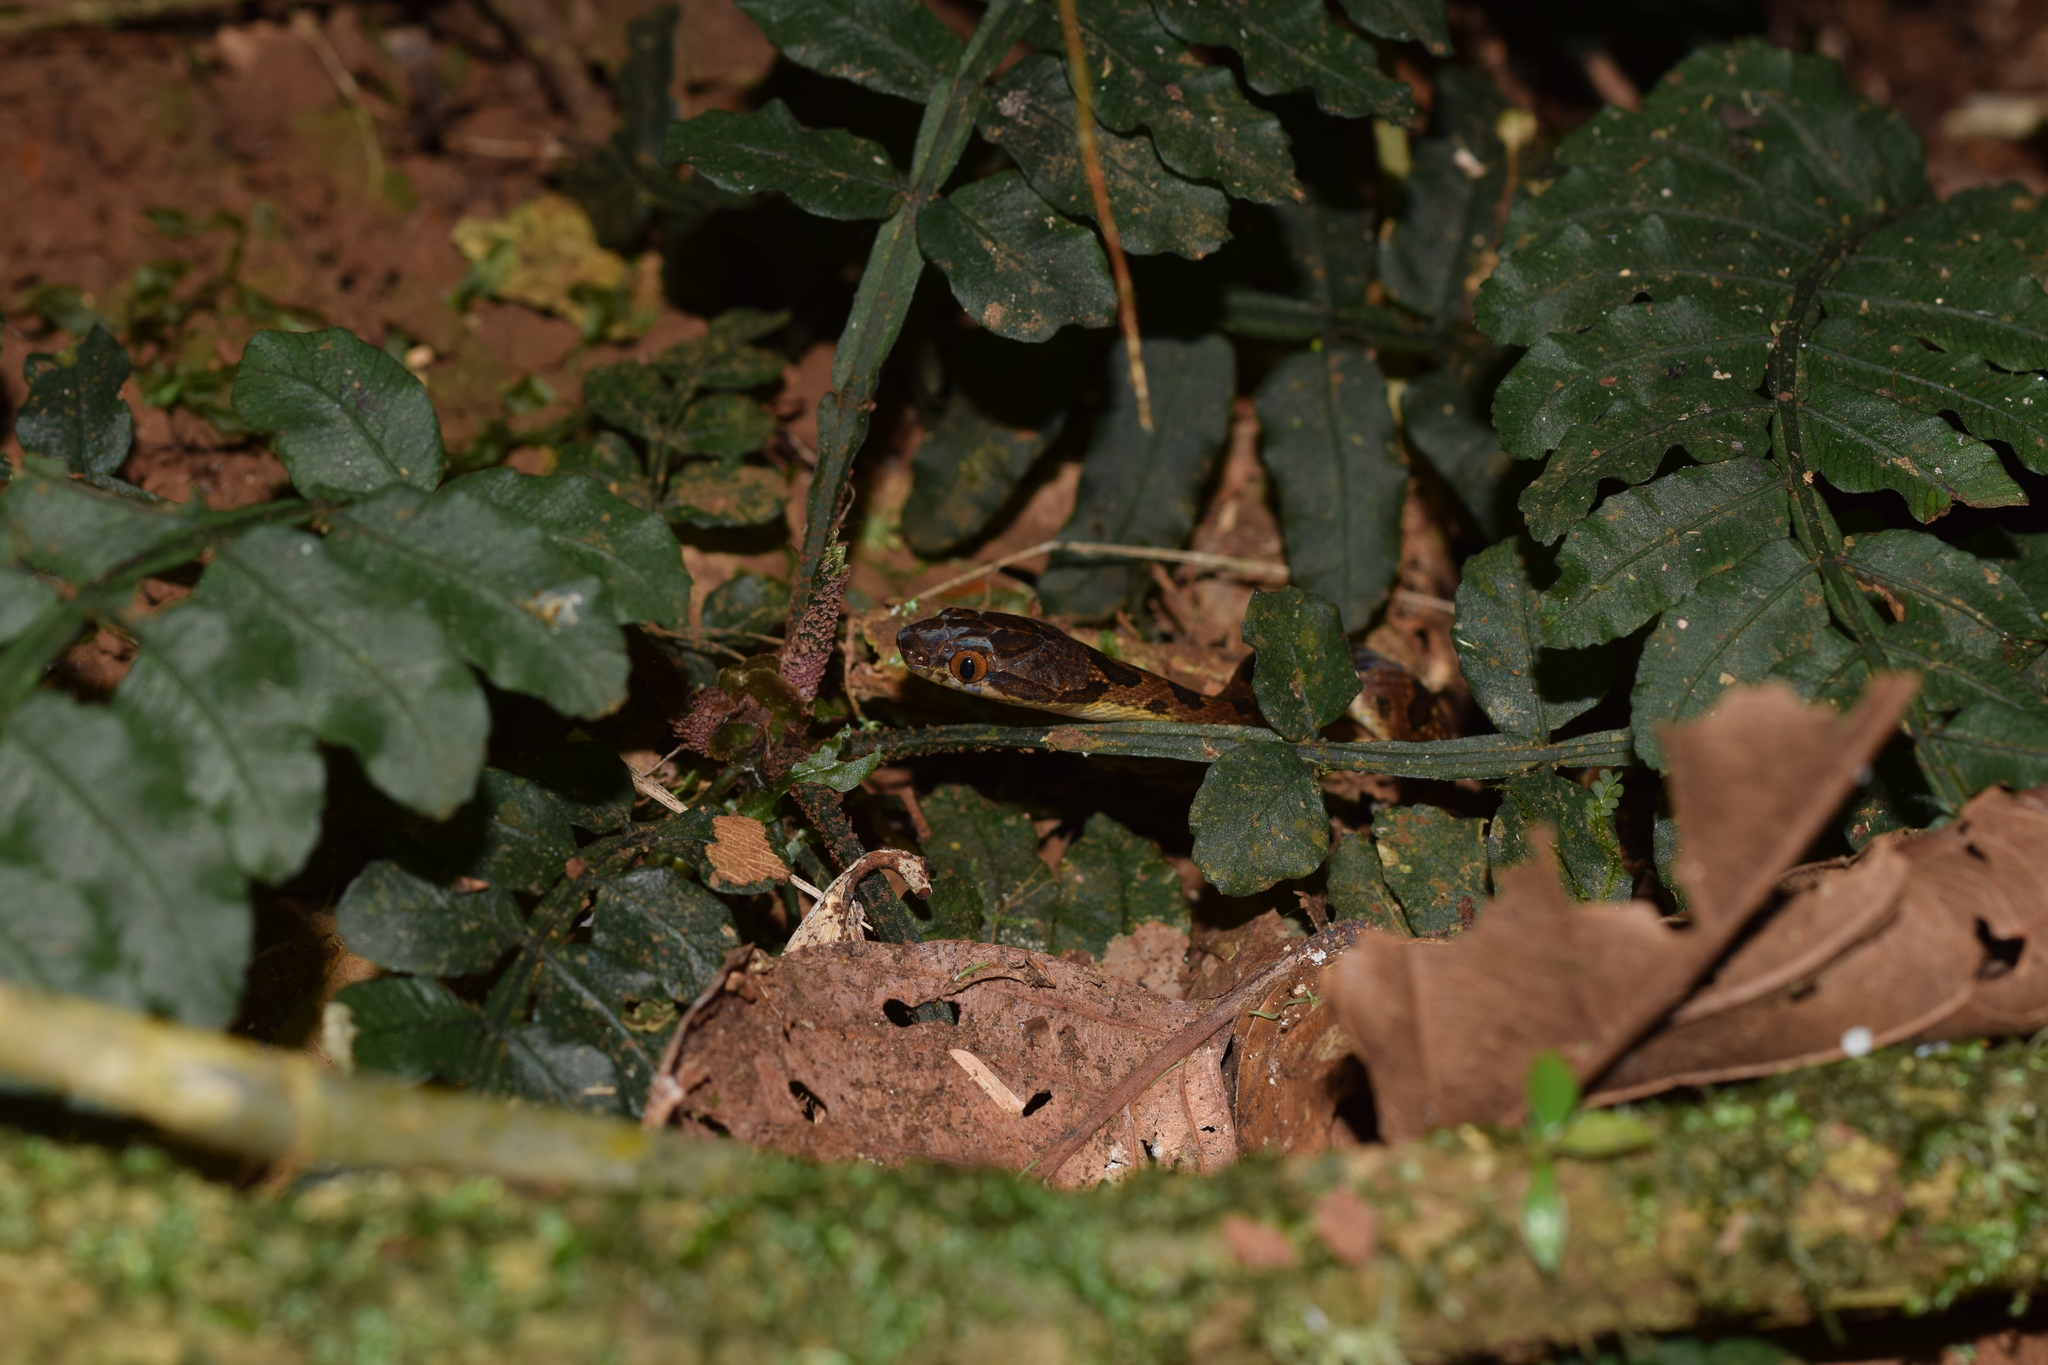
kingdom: Animalia
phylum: Chordata
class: Squamata
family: Colubridae
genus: Leptodeira
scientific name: Leptodeira ornata
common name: Northern cat-eyed snake
